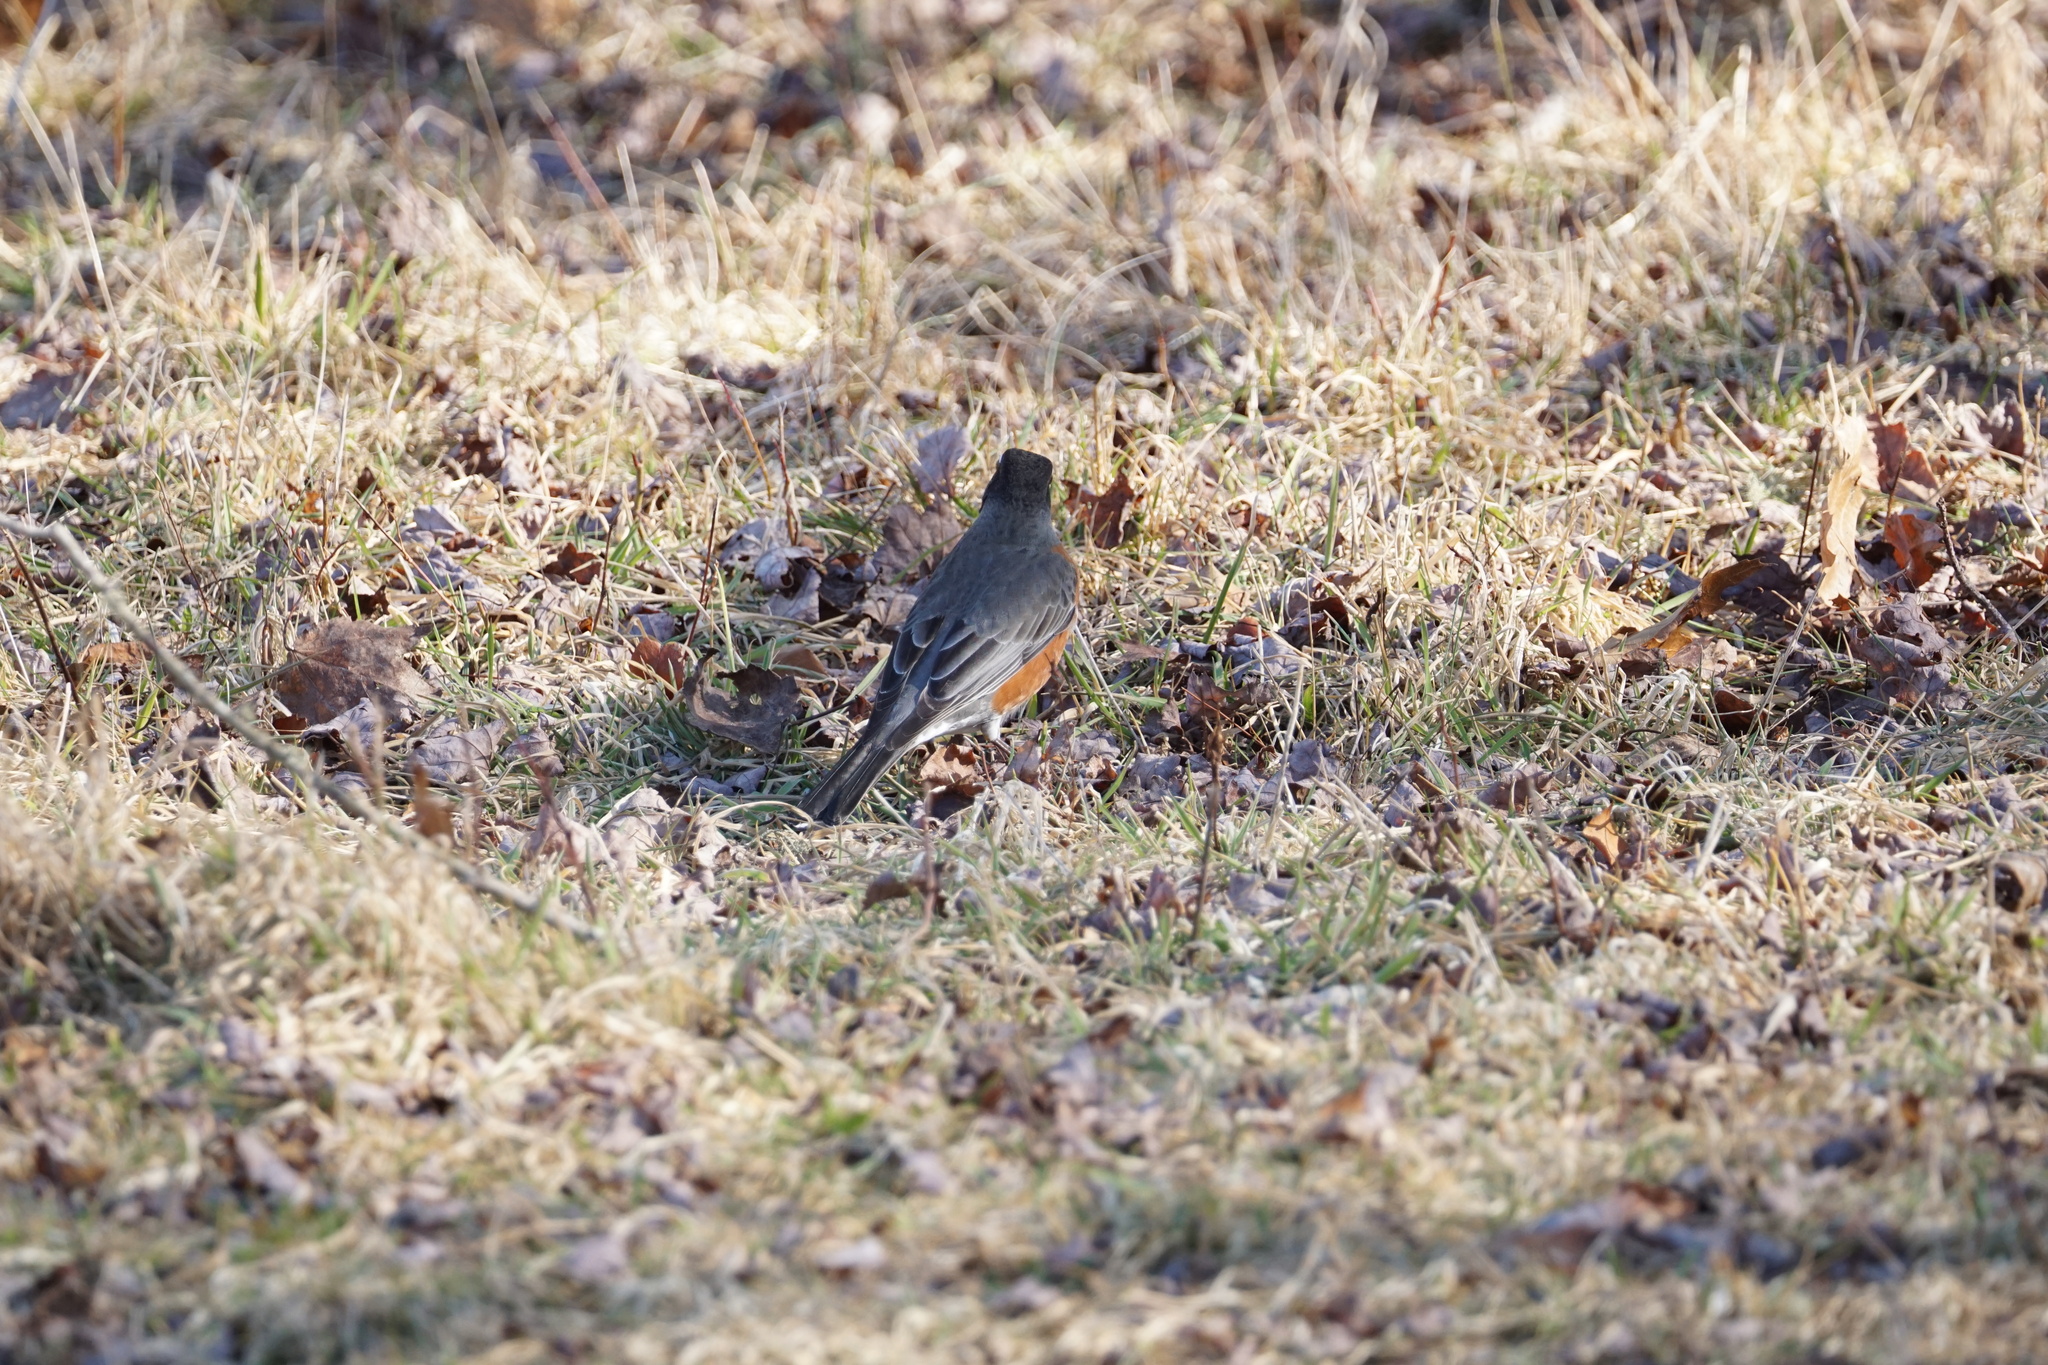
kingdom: Animalia
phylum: Chordata
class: Aves
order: Passeriformes
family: Turdidae
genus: Turdus
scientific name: Turdus migratorius
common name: American robin
